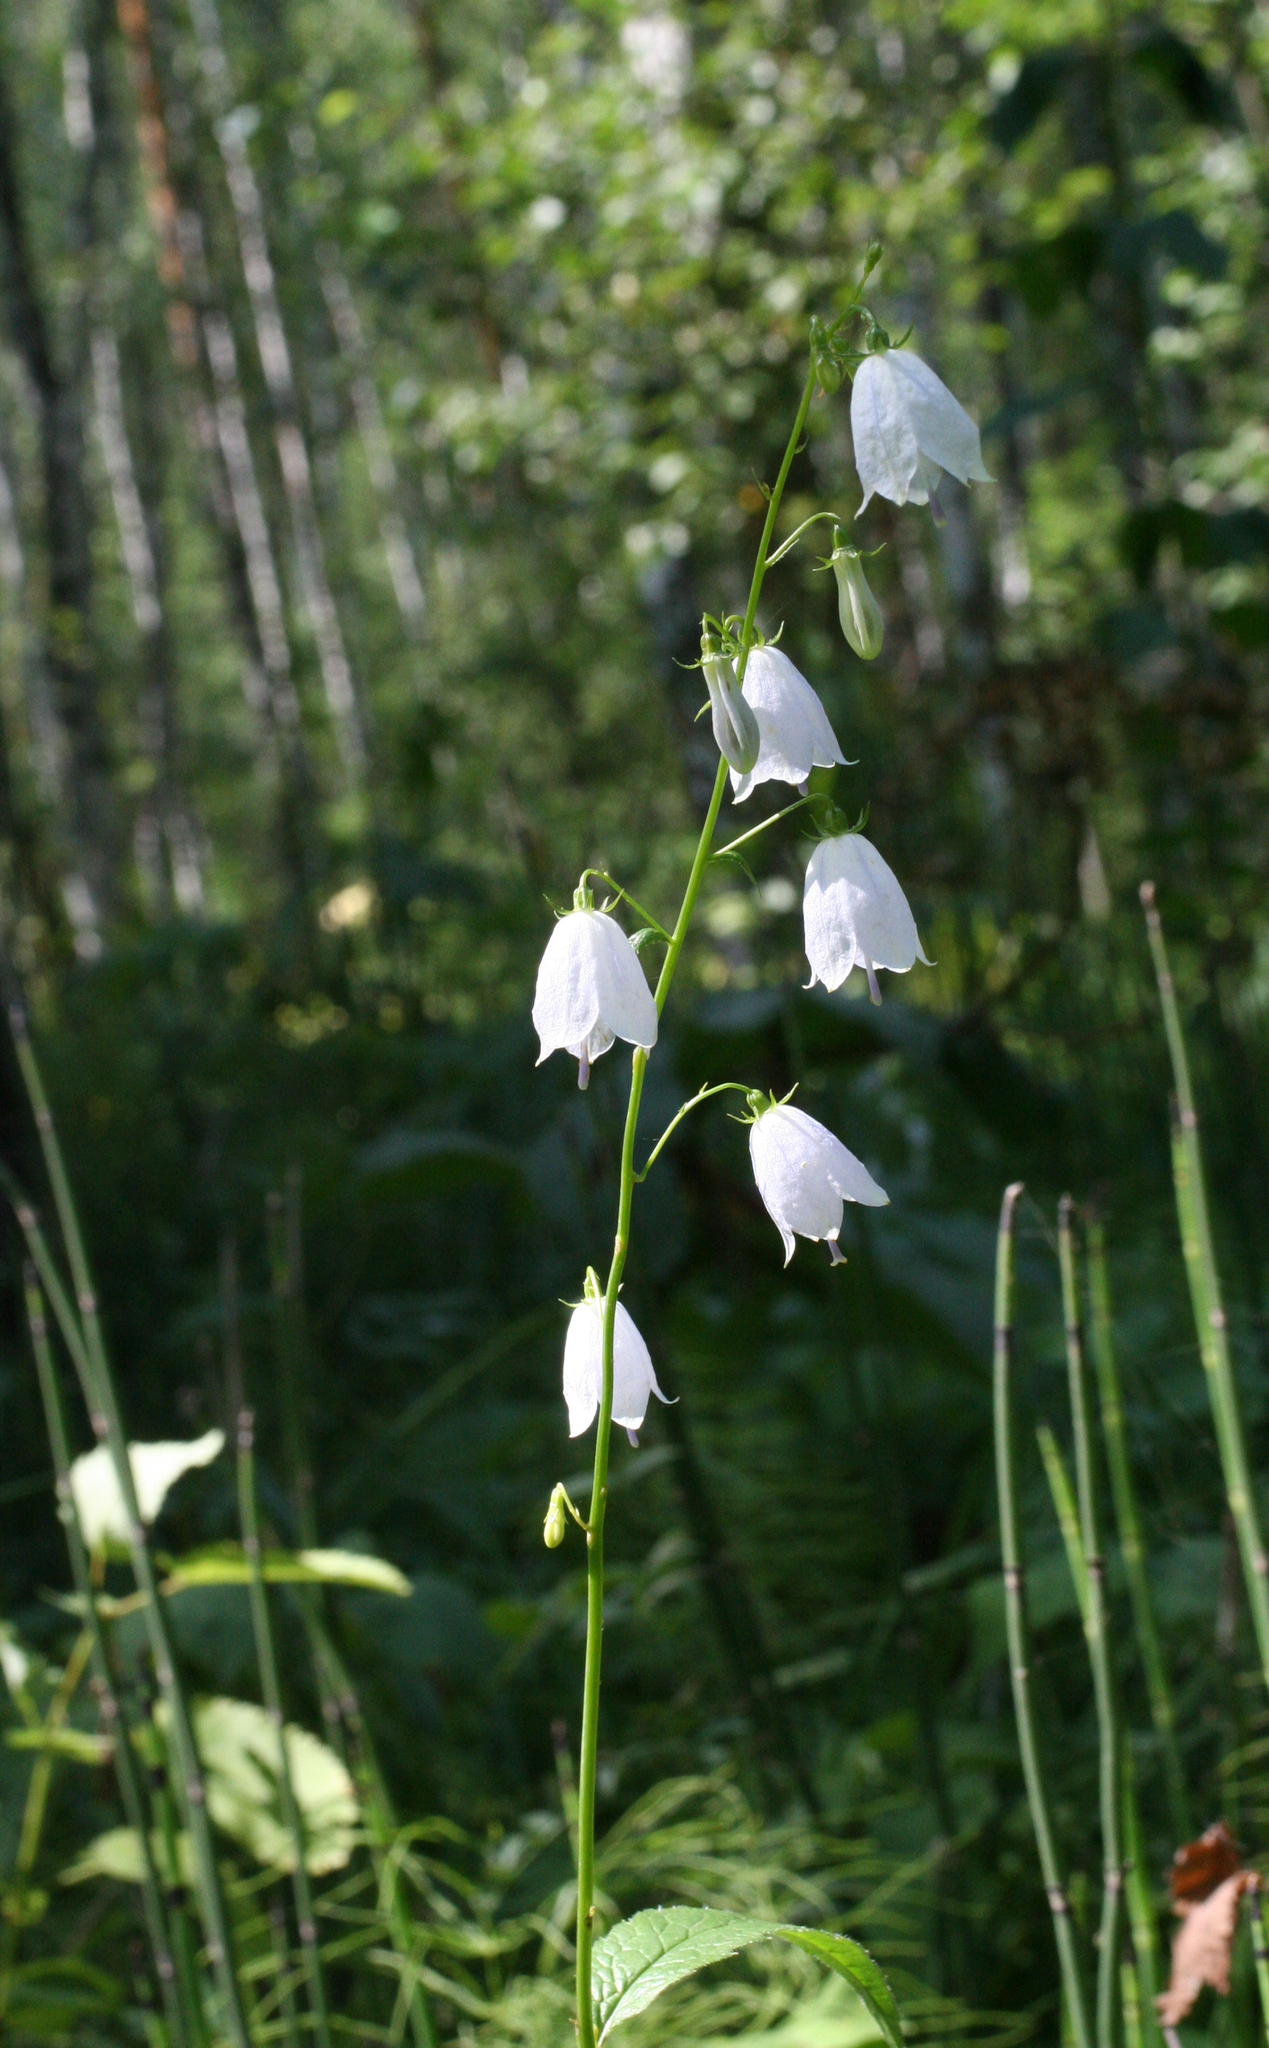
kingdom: Plantae
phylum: Tracheophyta
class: Magnoliopsida
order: Asterales
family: Campanulaceae
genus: Adenophora
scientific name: Adenophora liliifolia
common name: Lilyleaf ladybells
